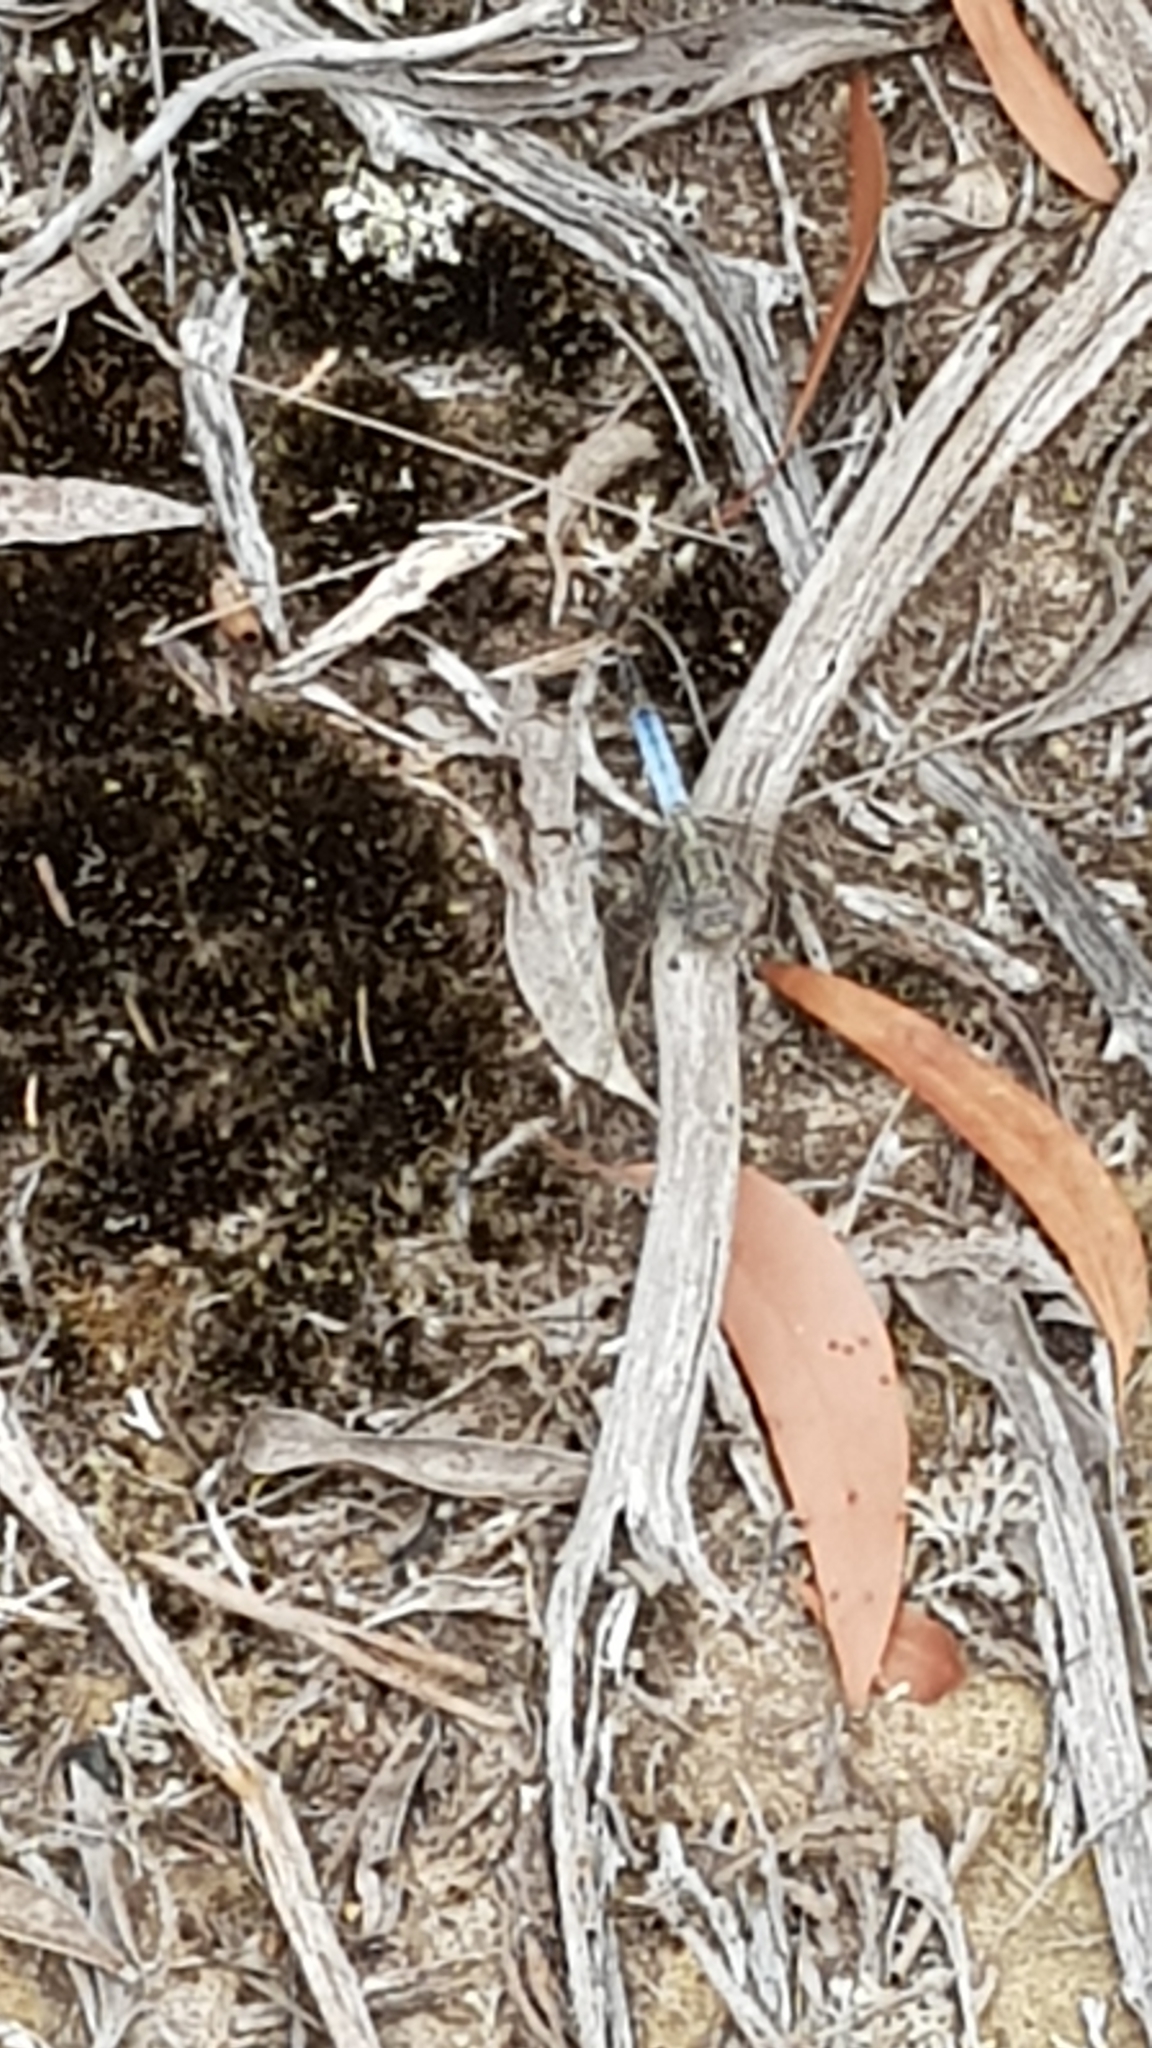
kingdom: Animalia
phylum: Arthropoda
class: Insecta
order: Odonata
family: Libellulidae
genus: Orthetrum
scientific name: Orthetrum caledonicum
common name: Blue skimmer
